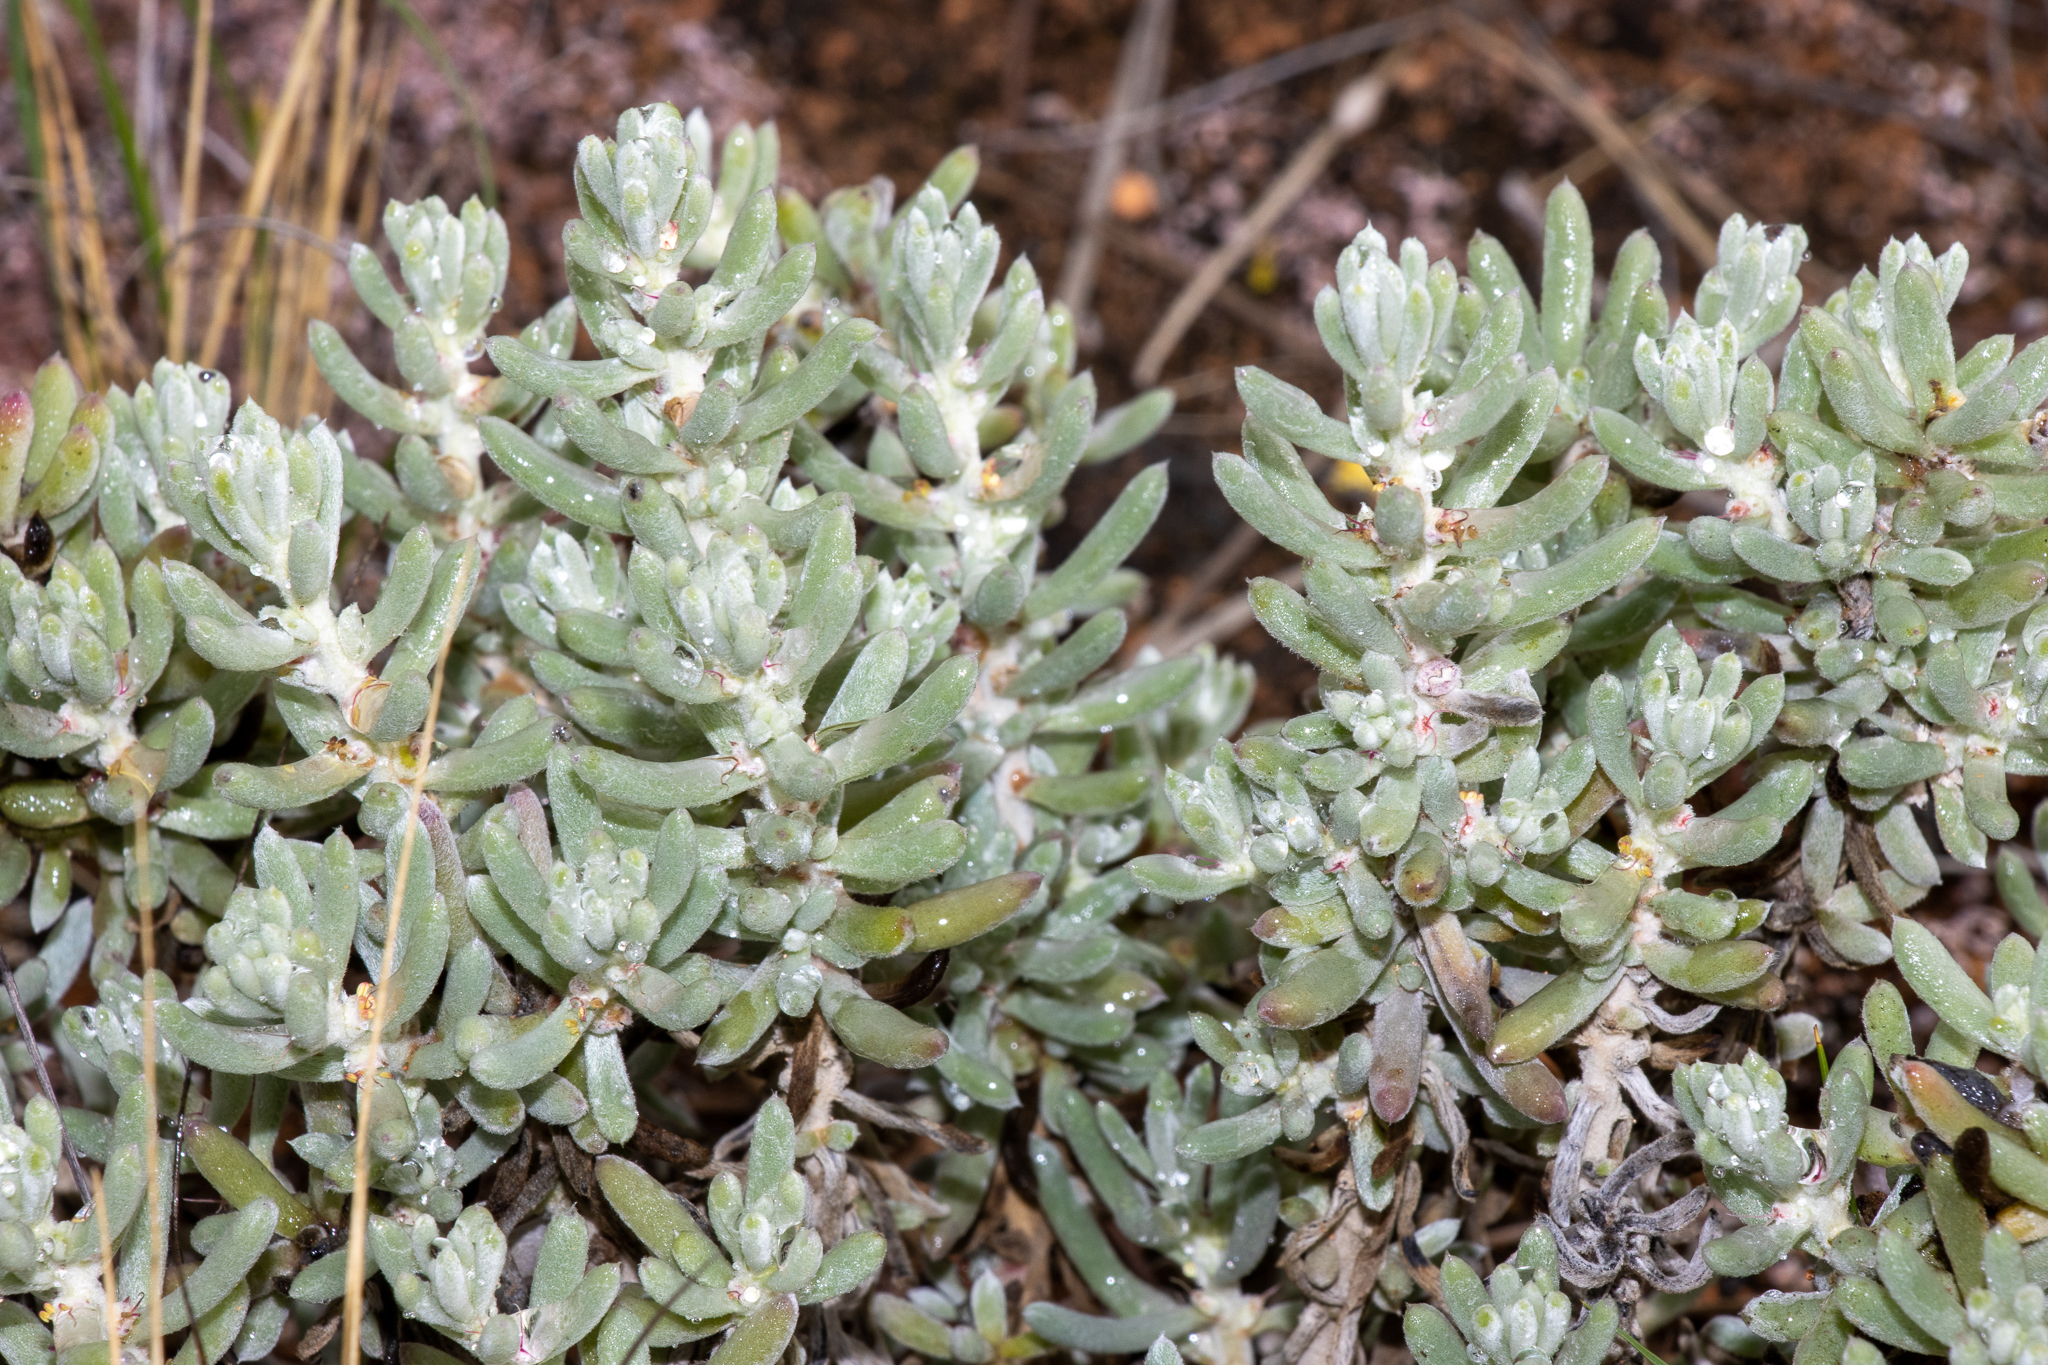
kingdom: Plantae
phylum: Tracheophyta
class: Magnoliopsida
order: Caryophyllales
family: Amaranthaceae
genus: Sclerolaena
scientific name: Sclerolaena uniflora
